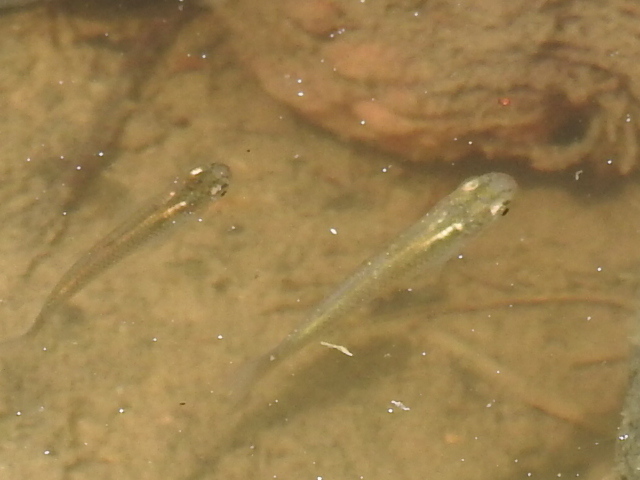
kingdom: Animalia
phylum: Chordata
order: Cyprinodontiformes
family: Poeciliidae
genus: Gambusia
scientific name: Gambusia affinis
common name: Mosquitofish
